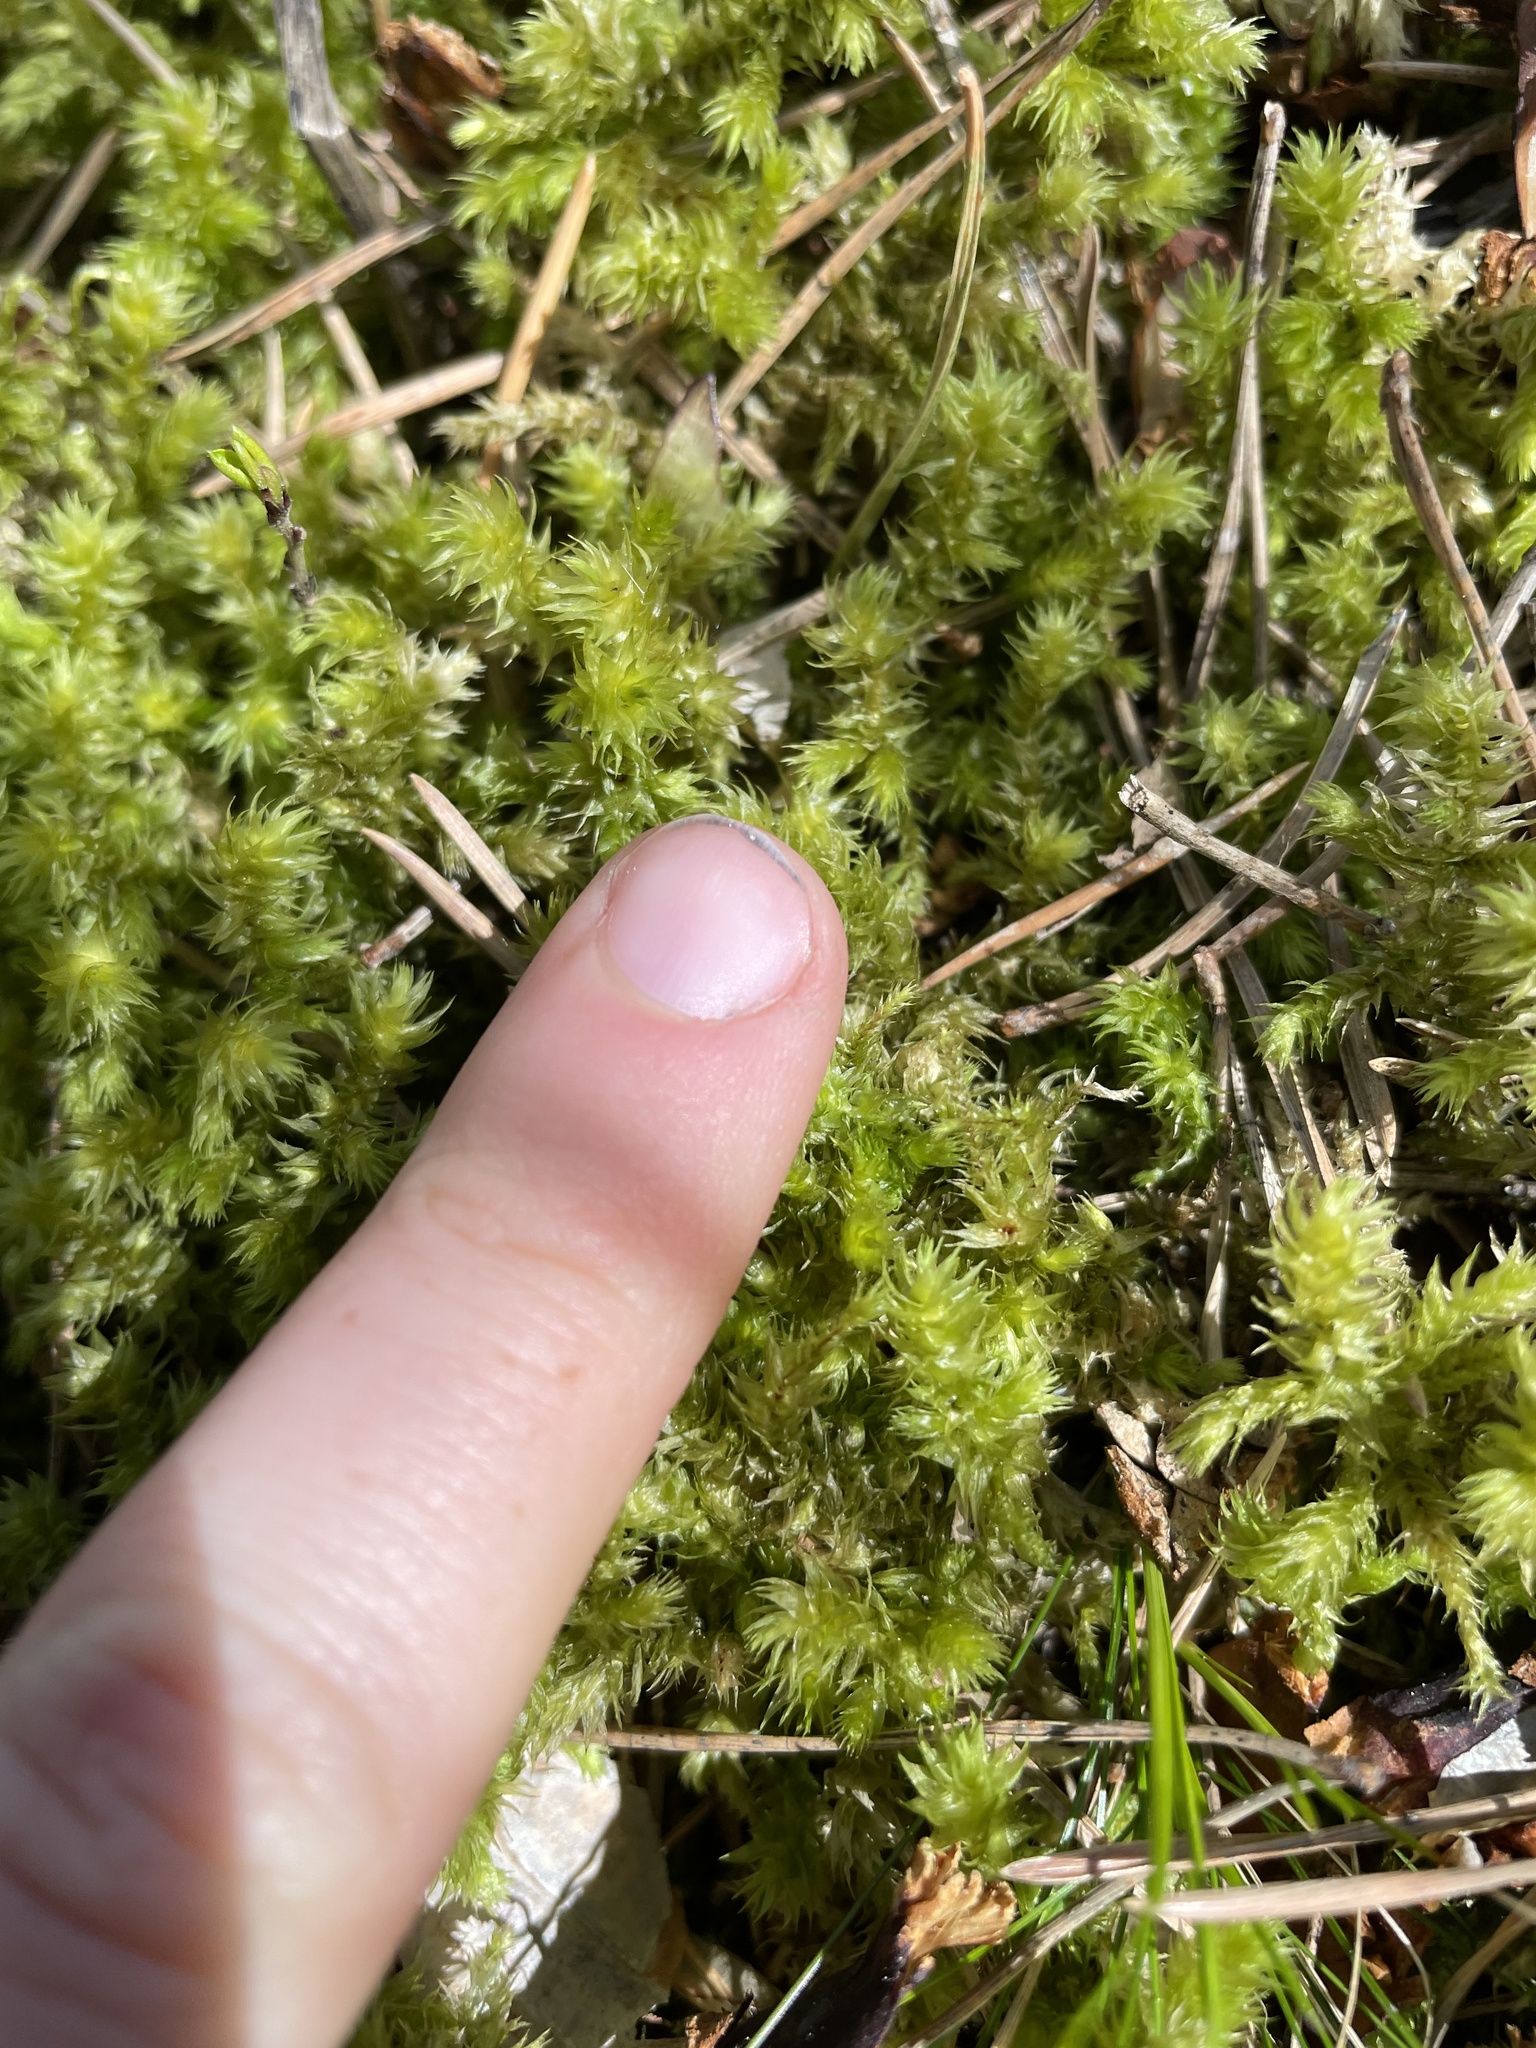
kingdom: Plantae
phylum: Bryophyta
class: Bryopsida
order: Hypnales
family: Hylocomiaceae
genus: Hylocomiadelphus
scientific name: Hylocomiadelphus triquetrus
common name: Rough goose neck moss
